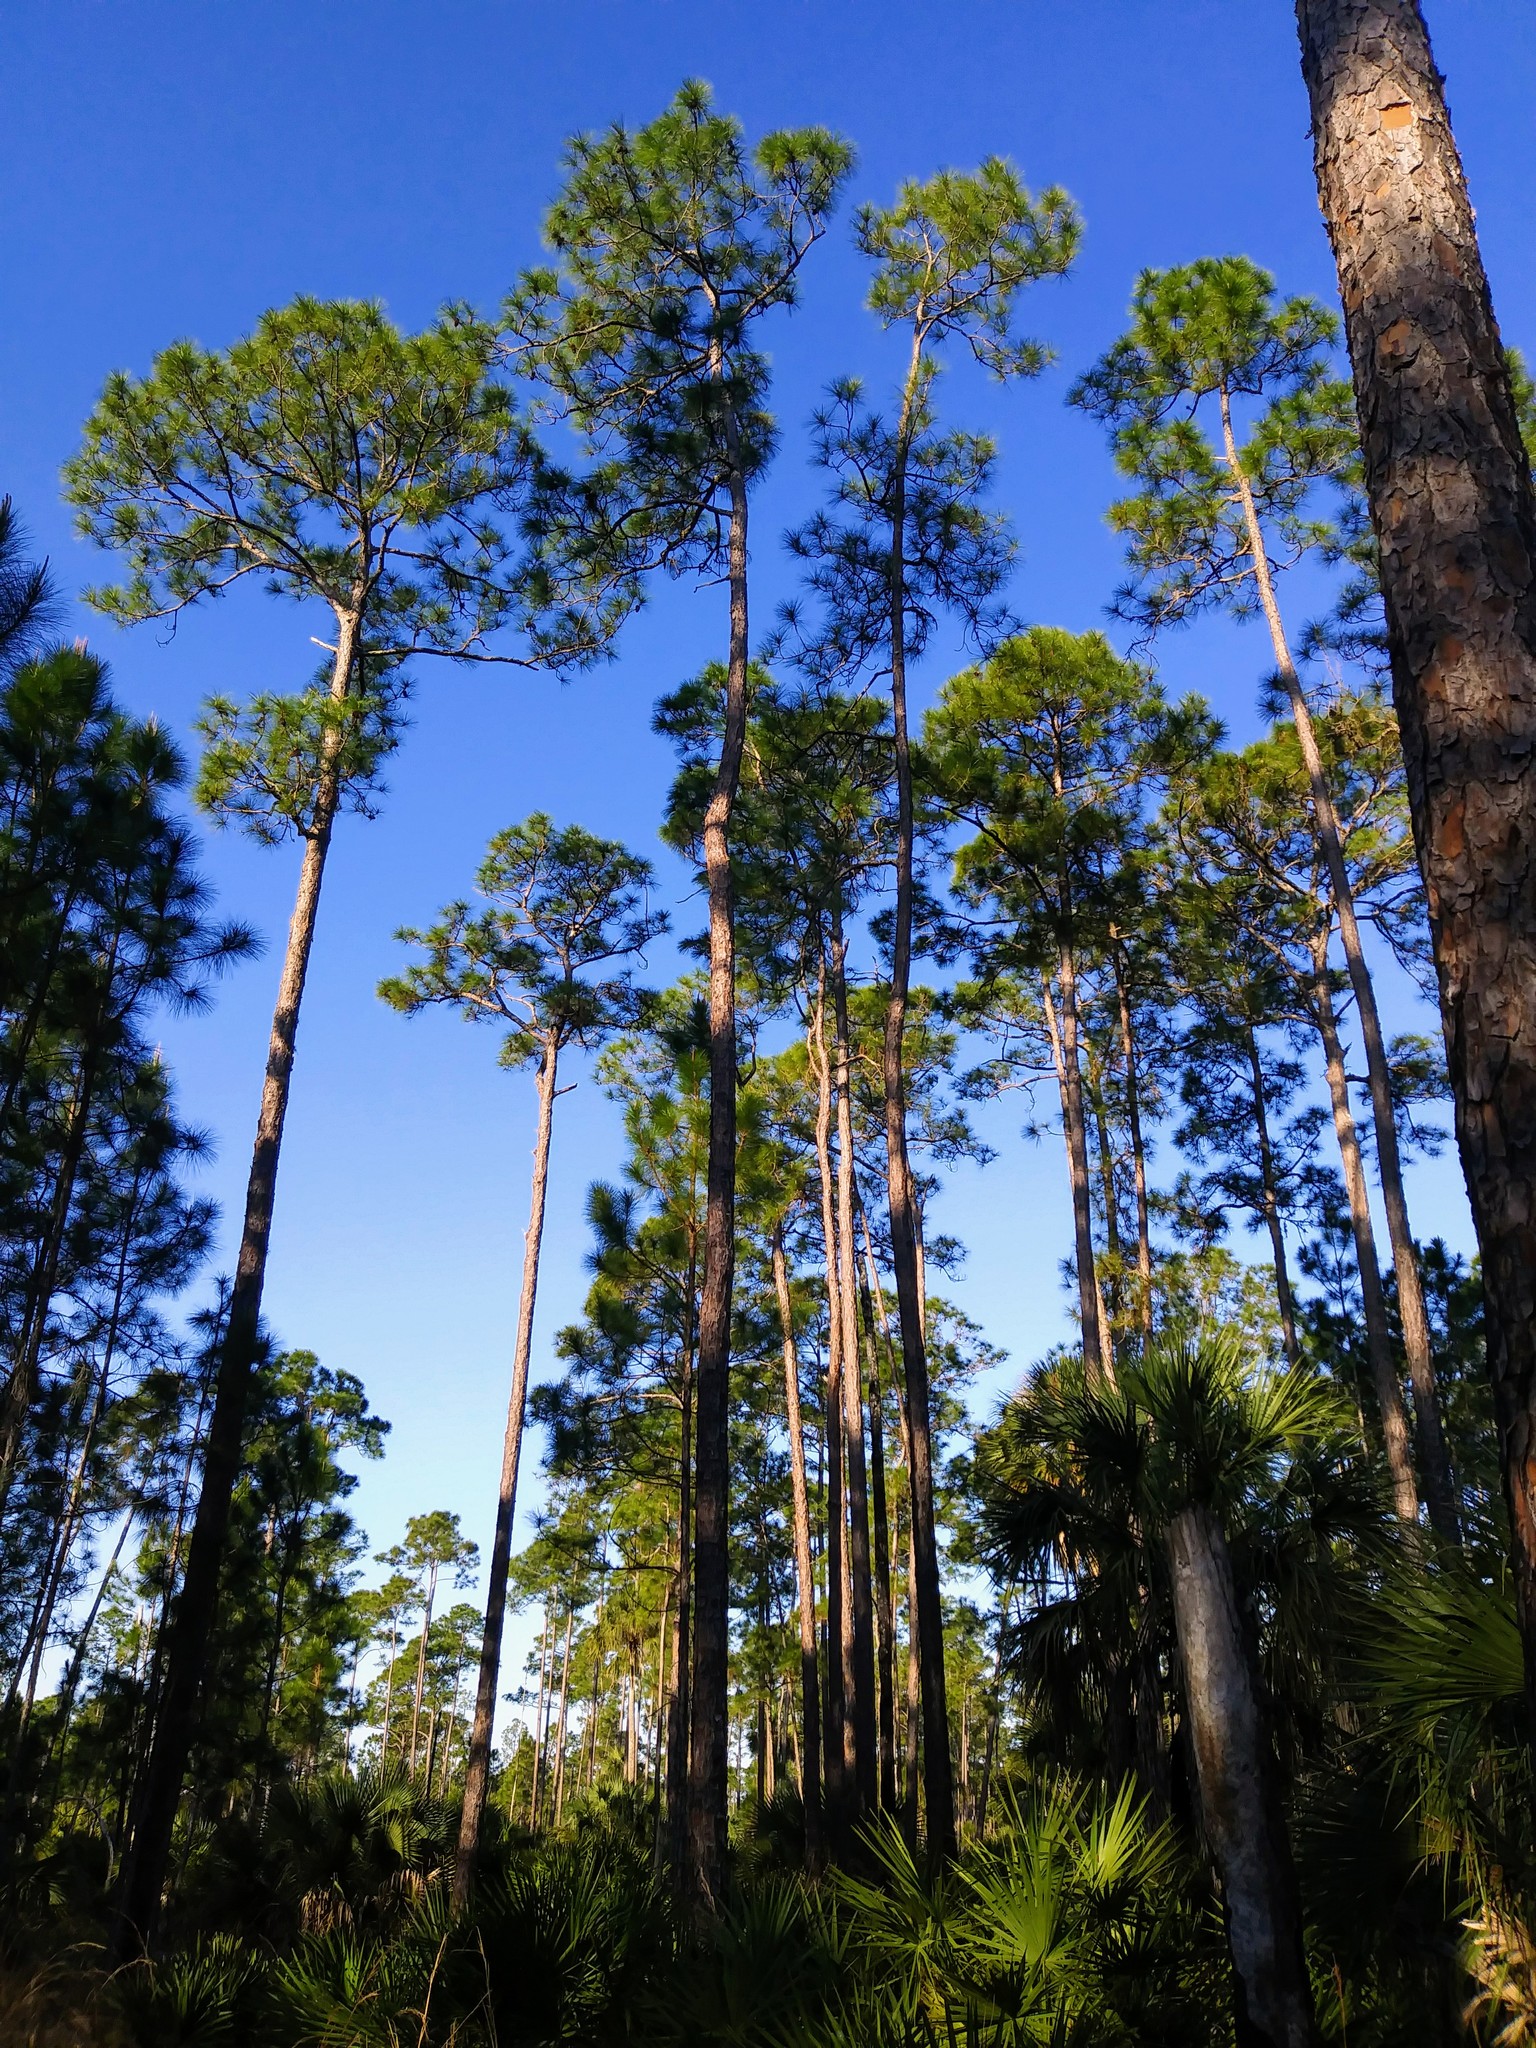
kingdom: Plantae
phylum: Tracheophyta
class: Pinopsida
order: Pinales
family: Pinaceae
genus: Pinus
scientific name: Pinus elliottii
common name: Slash pine
